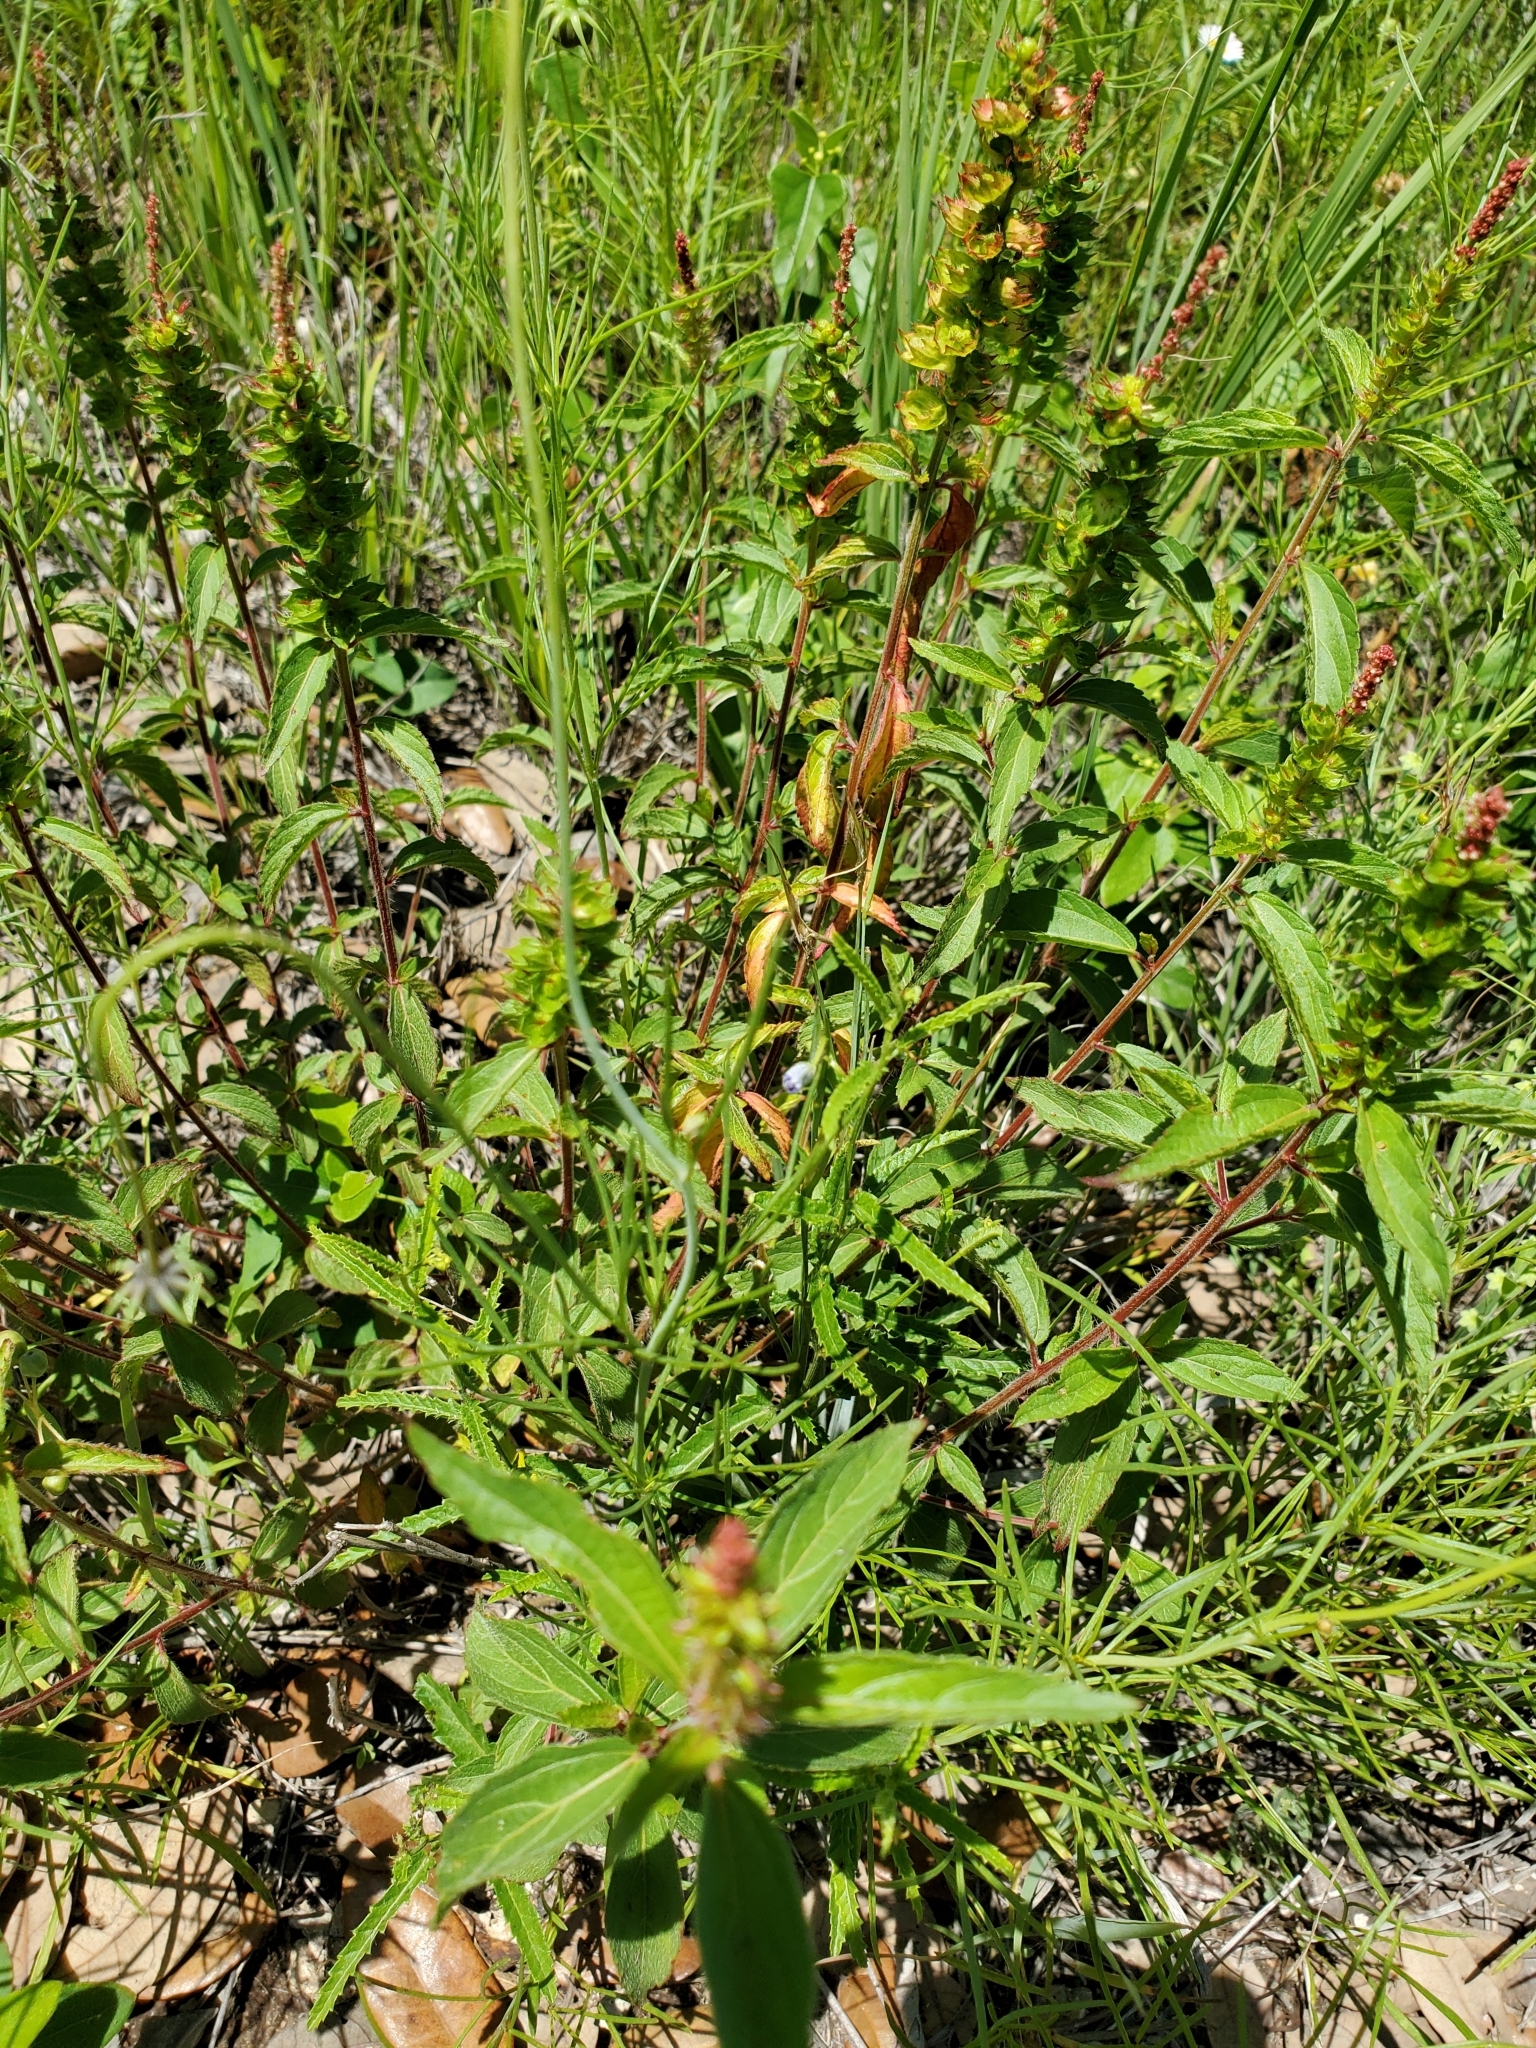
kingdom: Plantae
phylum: Tracheophyta
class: Magnoliopsida
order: Malpighiales
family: Euphorbiaceae
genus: Acalypha
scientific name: Acalypha phleoides
